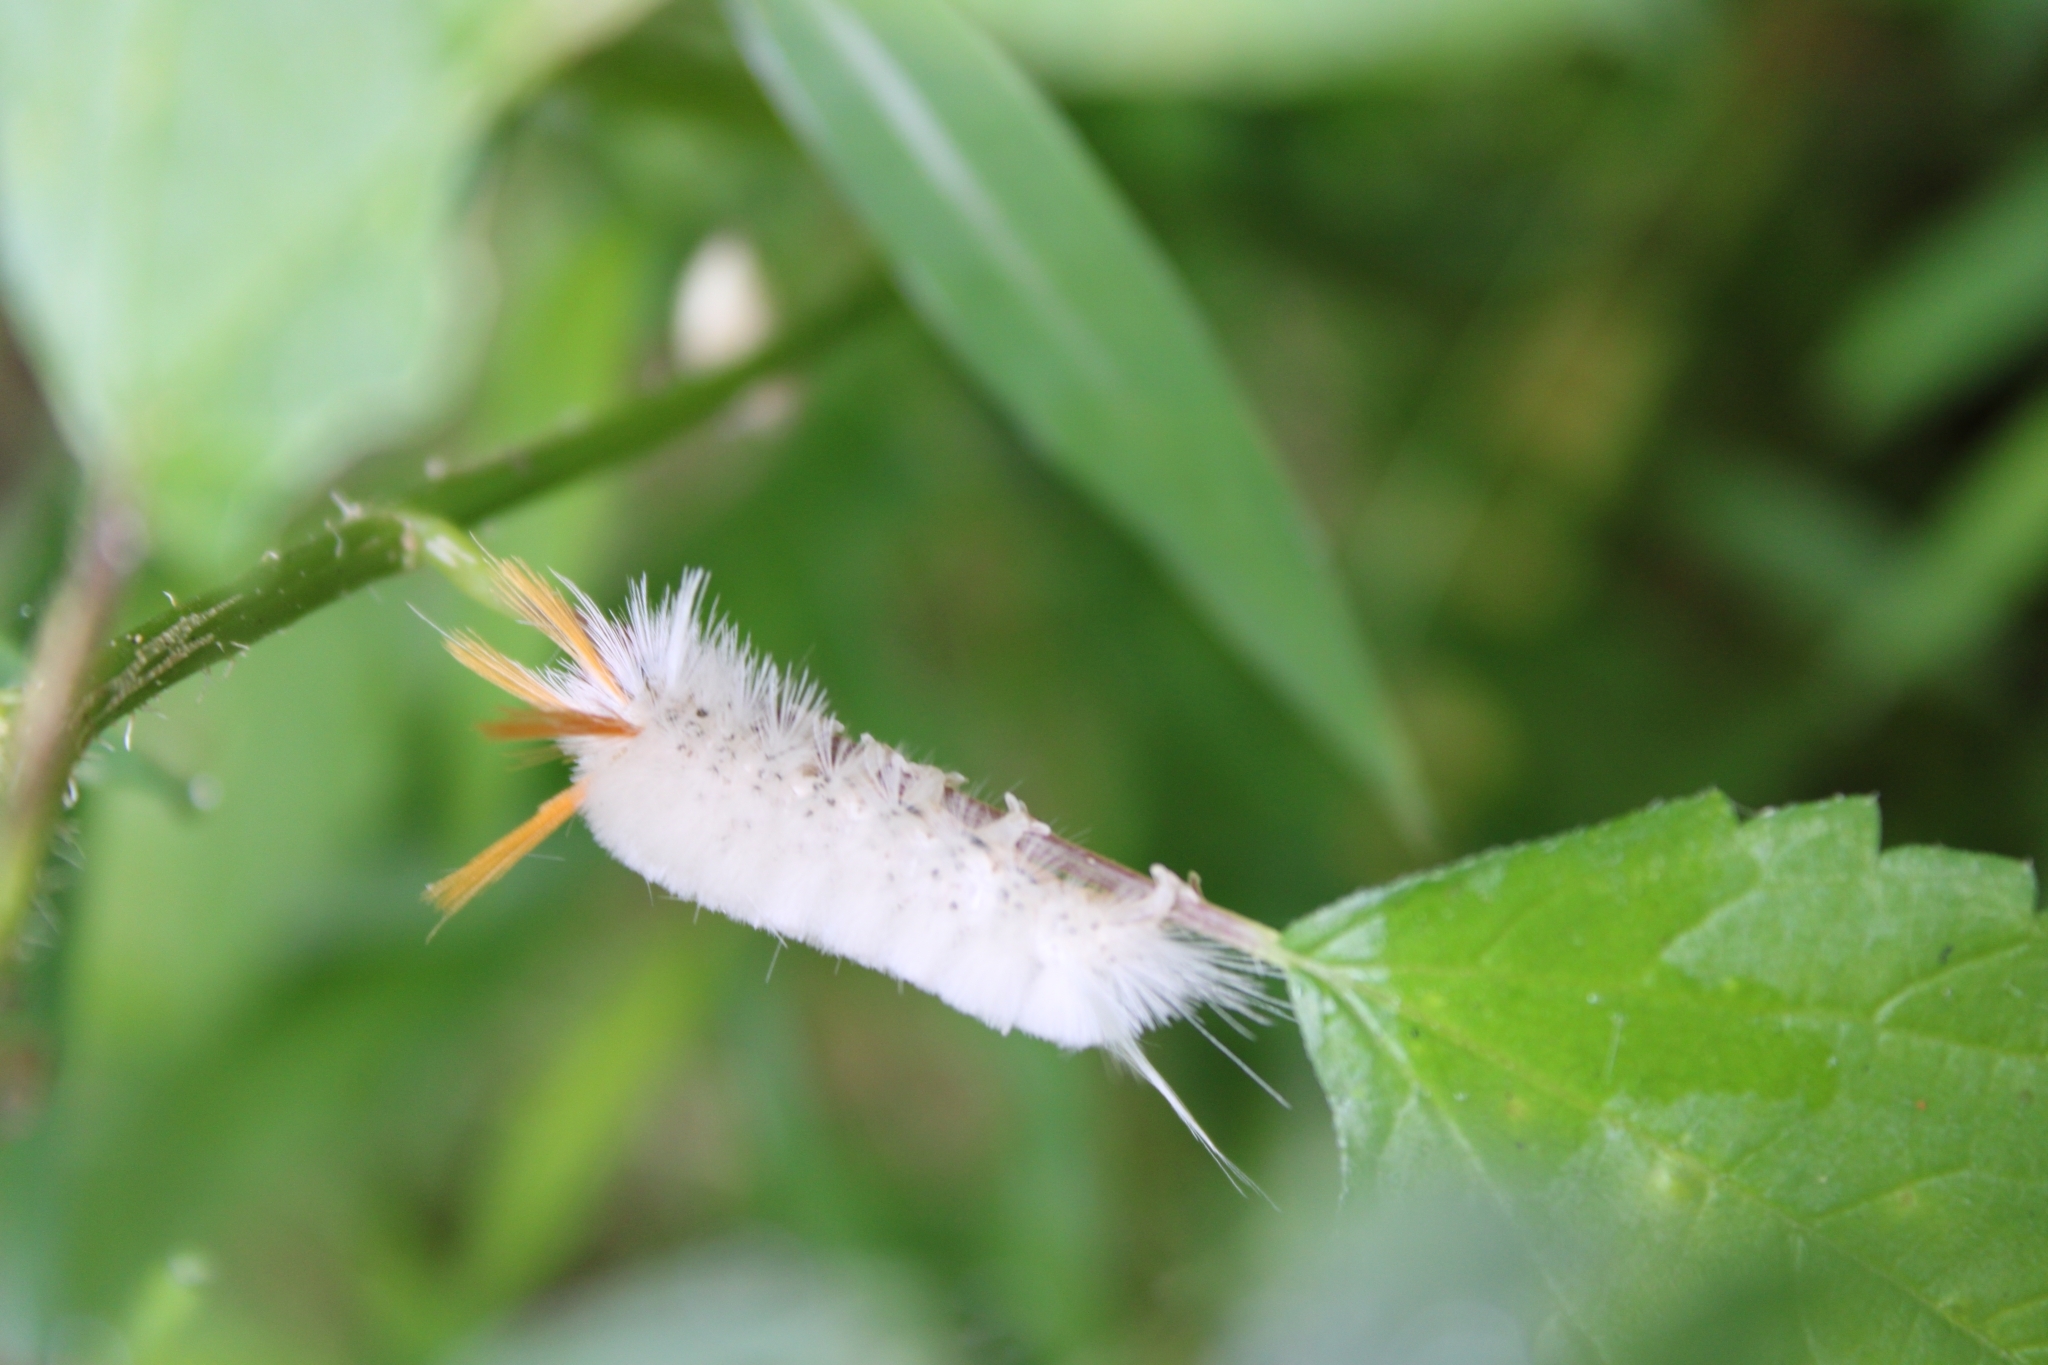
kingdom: Animalia
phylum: Arthropoda
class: Insecta
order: Lepidoptera
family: Erebidae
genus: Halysidota
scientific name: Halysidota harrisii
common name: Sycamore tussock moth
